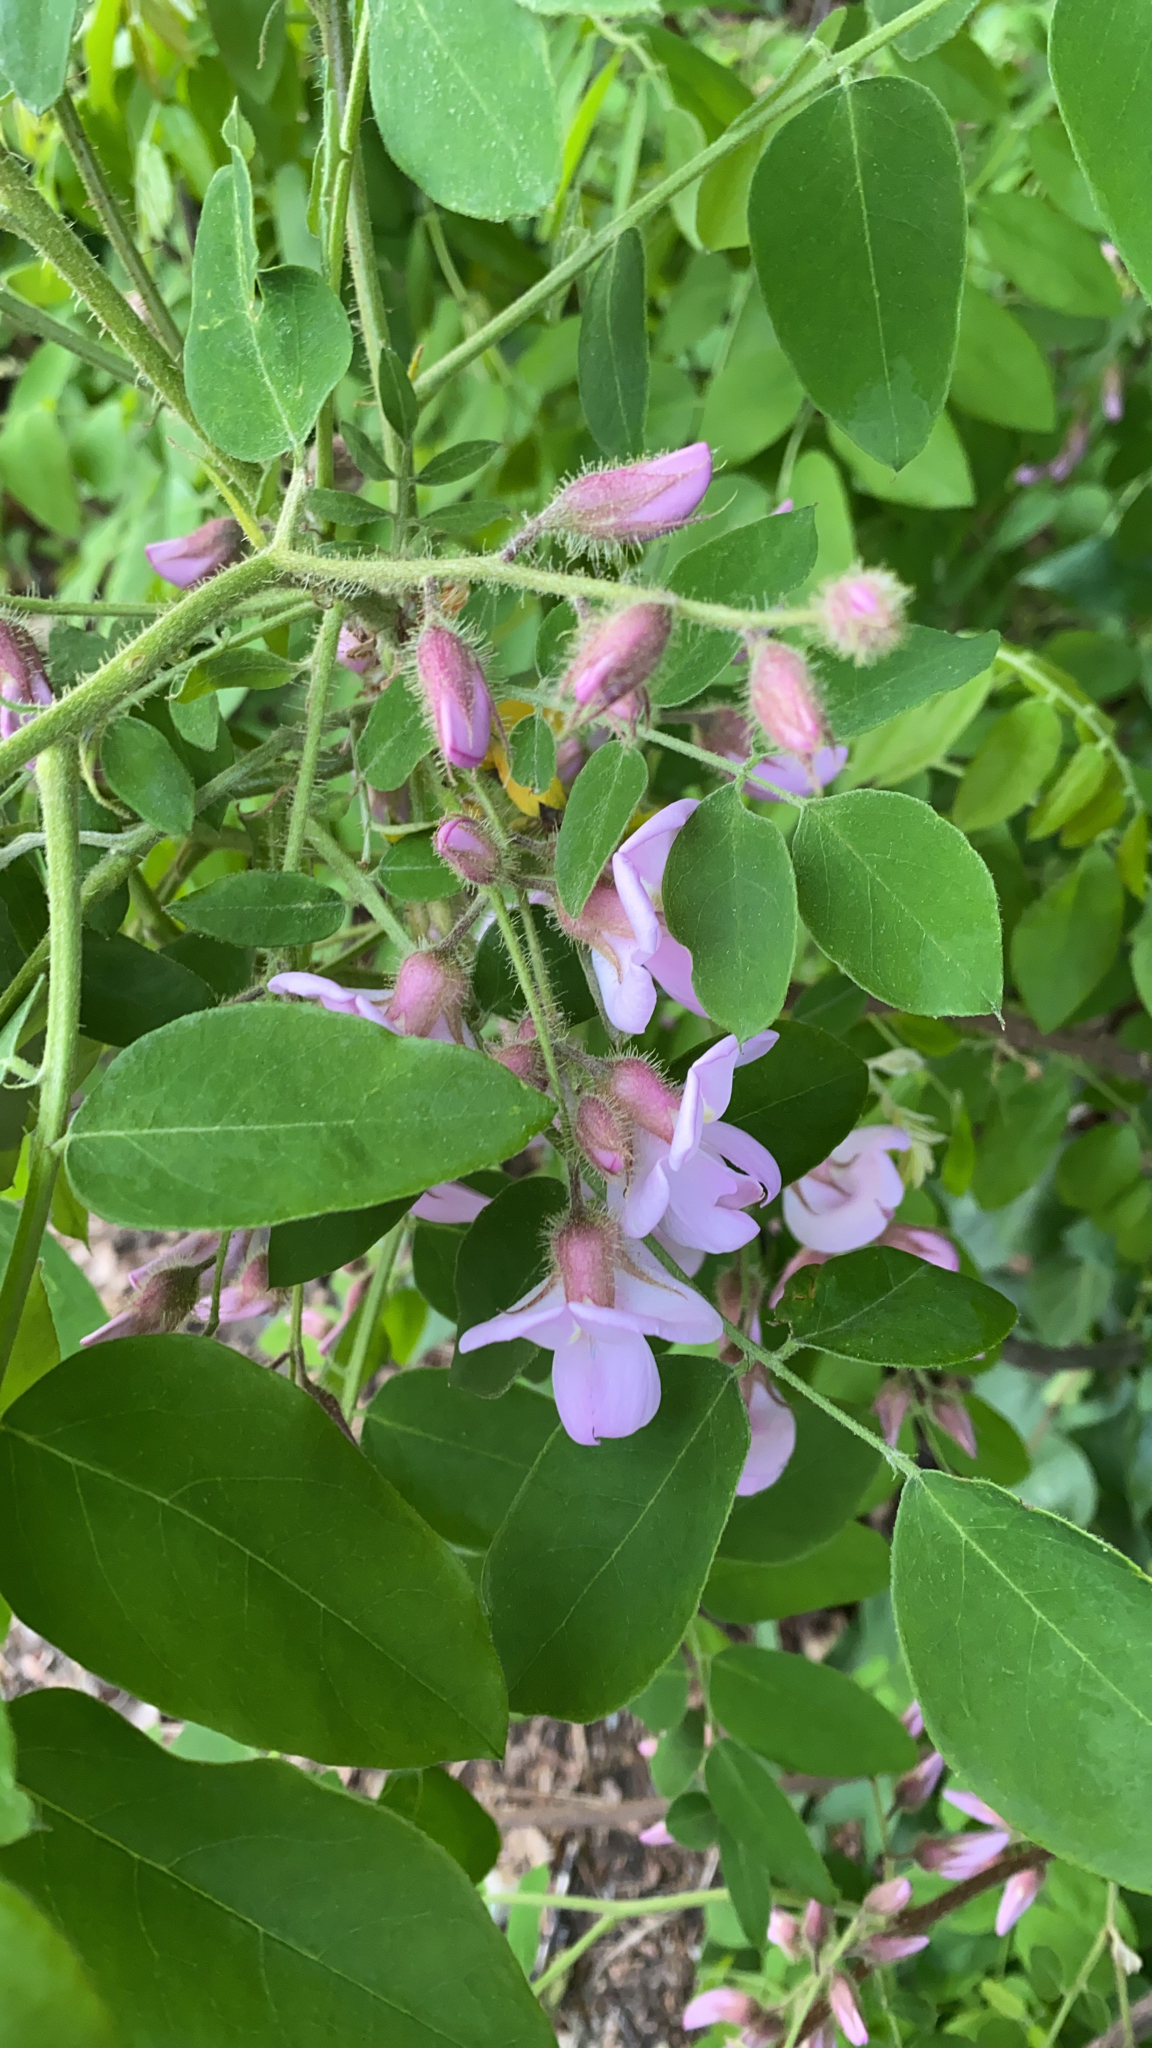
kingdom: Plantae
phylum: Tracheophyta
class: Magnoliopsida
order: Fabales
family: Fabaceae
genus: Robinia
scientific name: Robinia hispida
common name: Bristly locust
